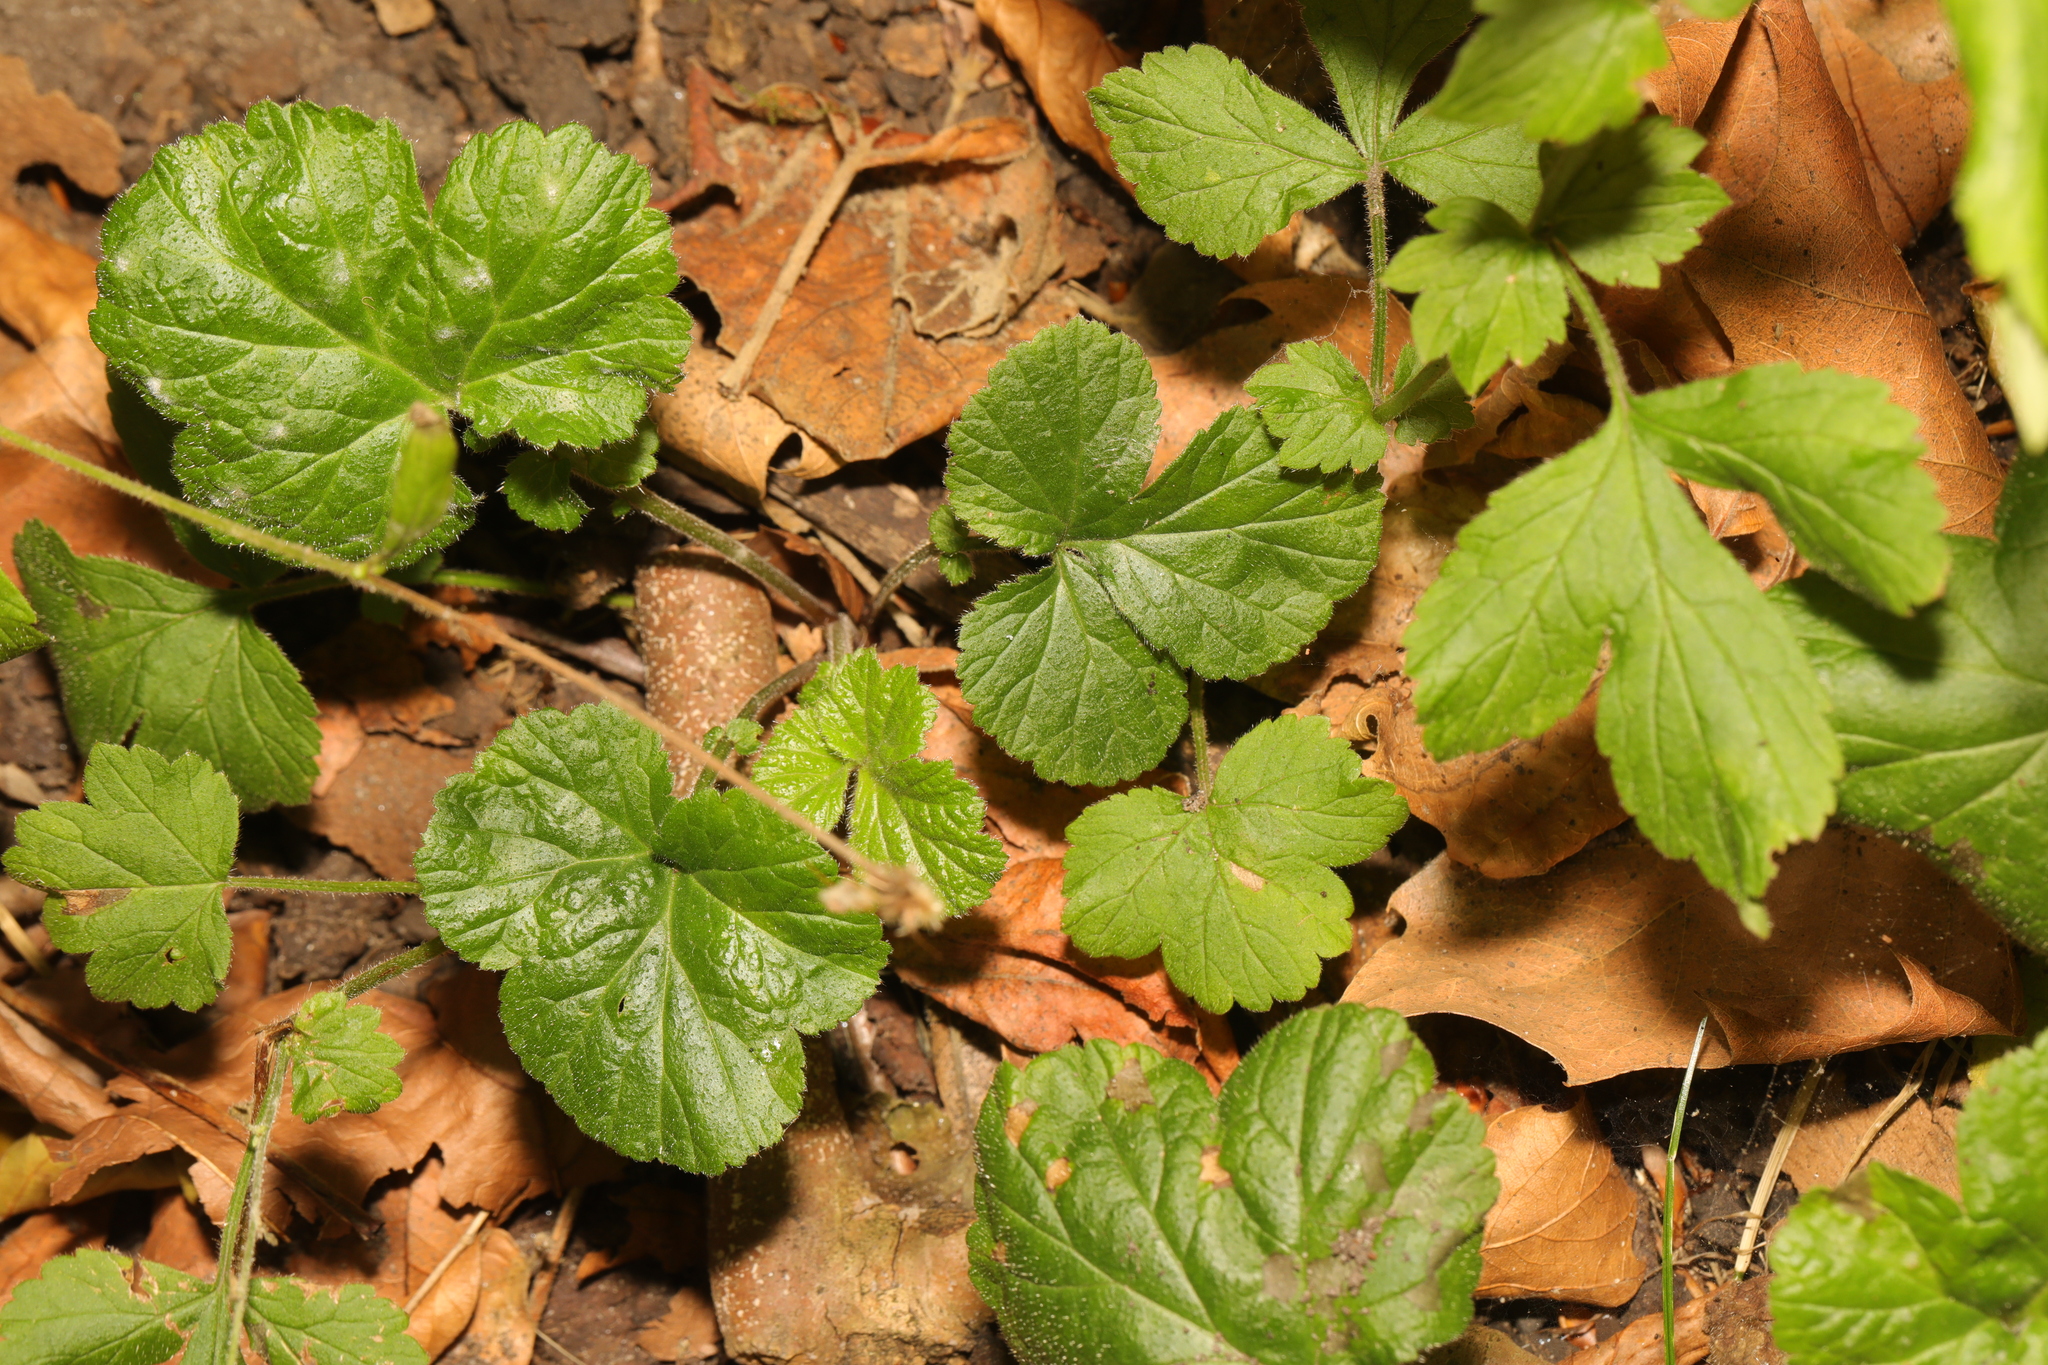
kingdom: Plantae
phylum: Tracheophyta
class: Magnoliopsida
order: Rosales
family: Rosaceae
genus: Geum
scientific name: Geum urbanum
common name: Wood avens
